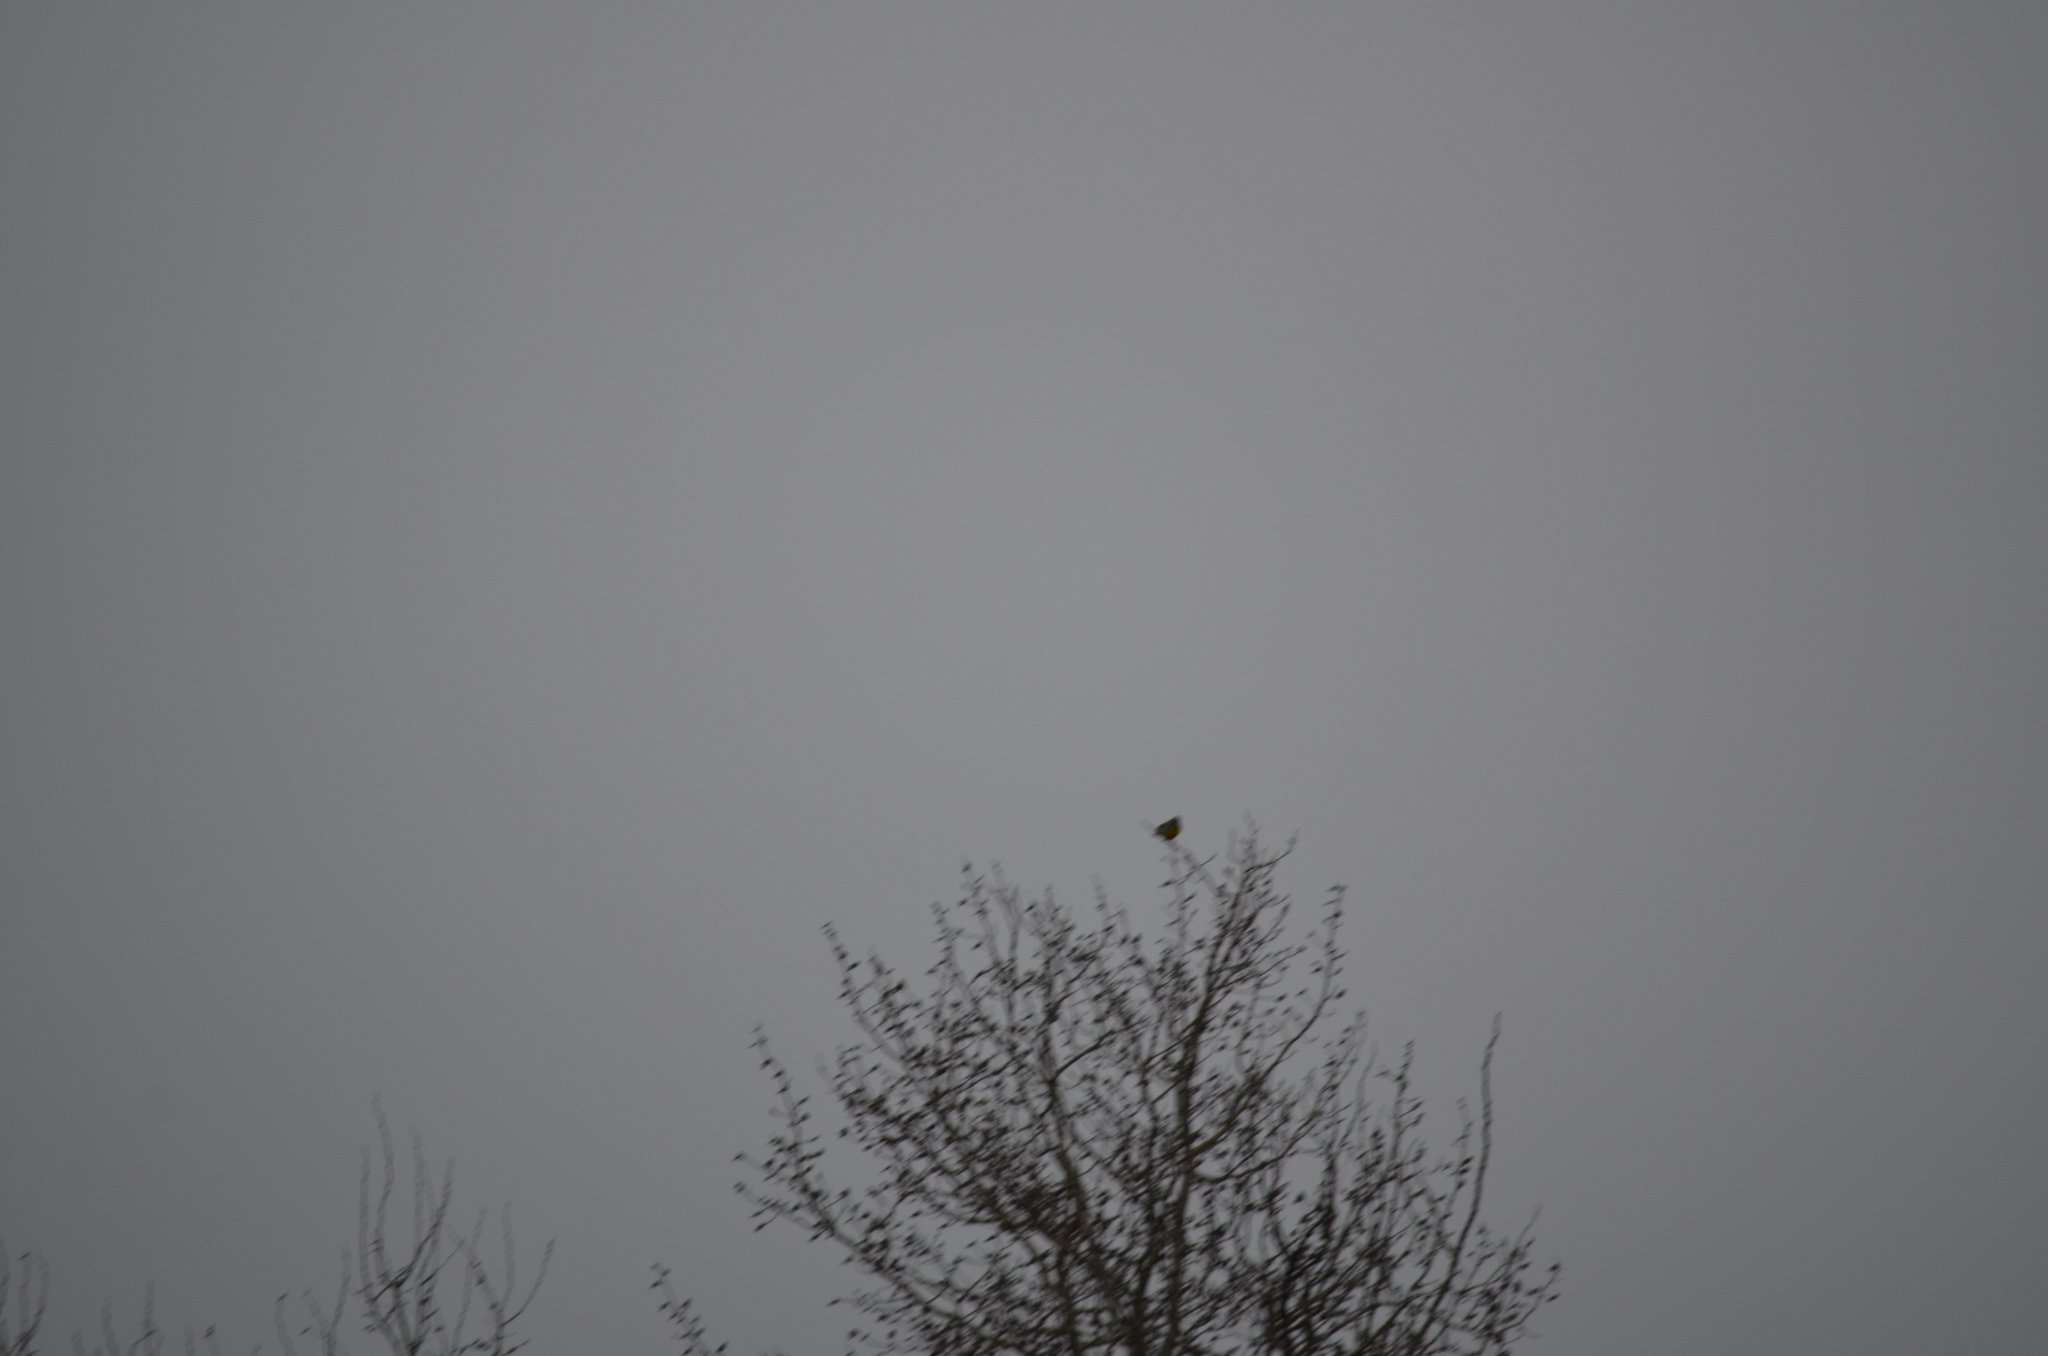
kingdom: Animalia
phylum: Chordata
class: Aves
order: Passeriformes
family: Icteridae
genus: Sturnella
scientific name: Sturnella neglecta
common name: Western meadowlark
